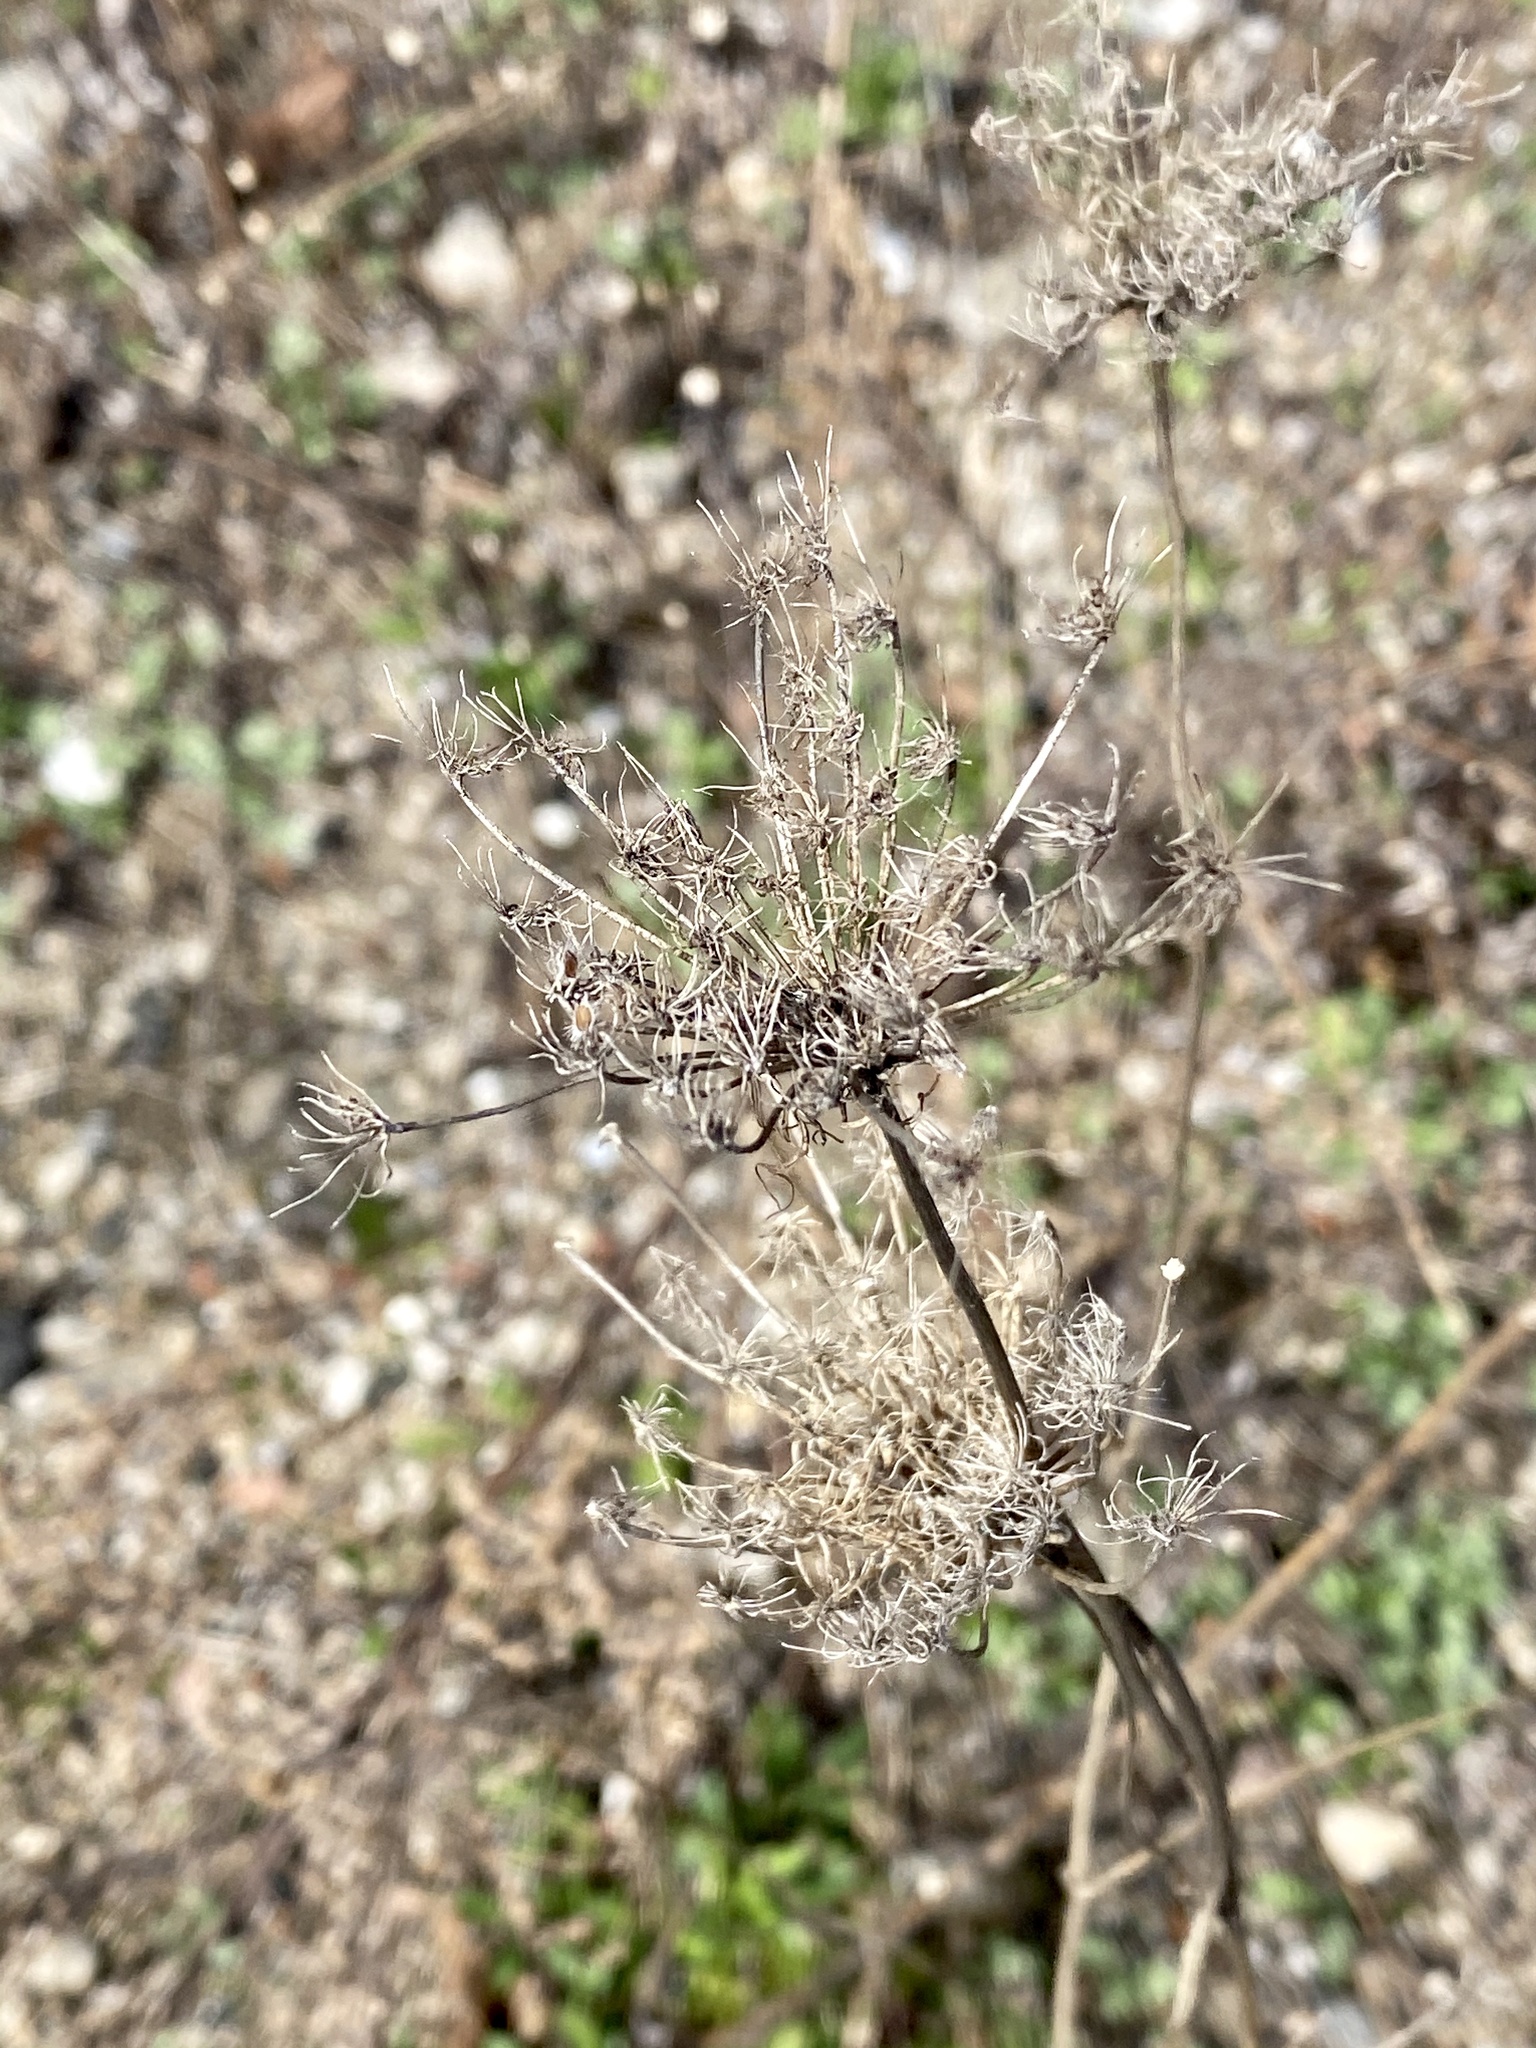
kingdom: Plantae
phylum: Tracheophyta
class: Magnoliopsida
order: Apiales
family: Apiaceae
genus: Daucus
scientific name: Daucus carota
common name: Wild carrot
